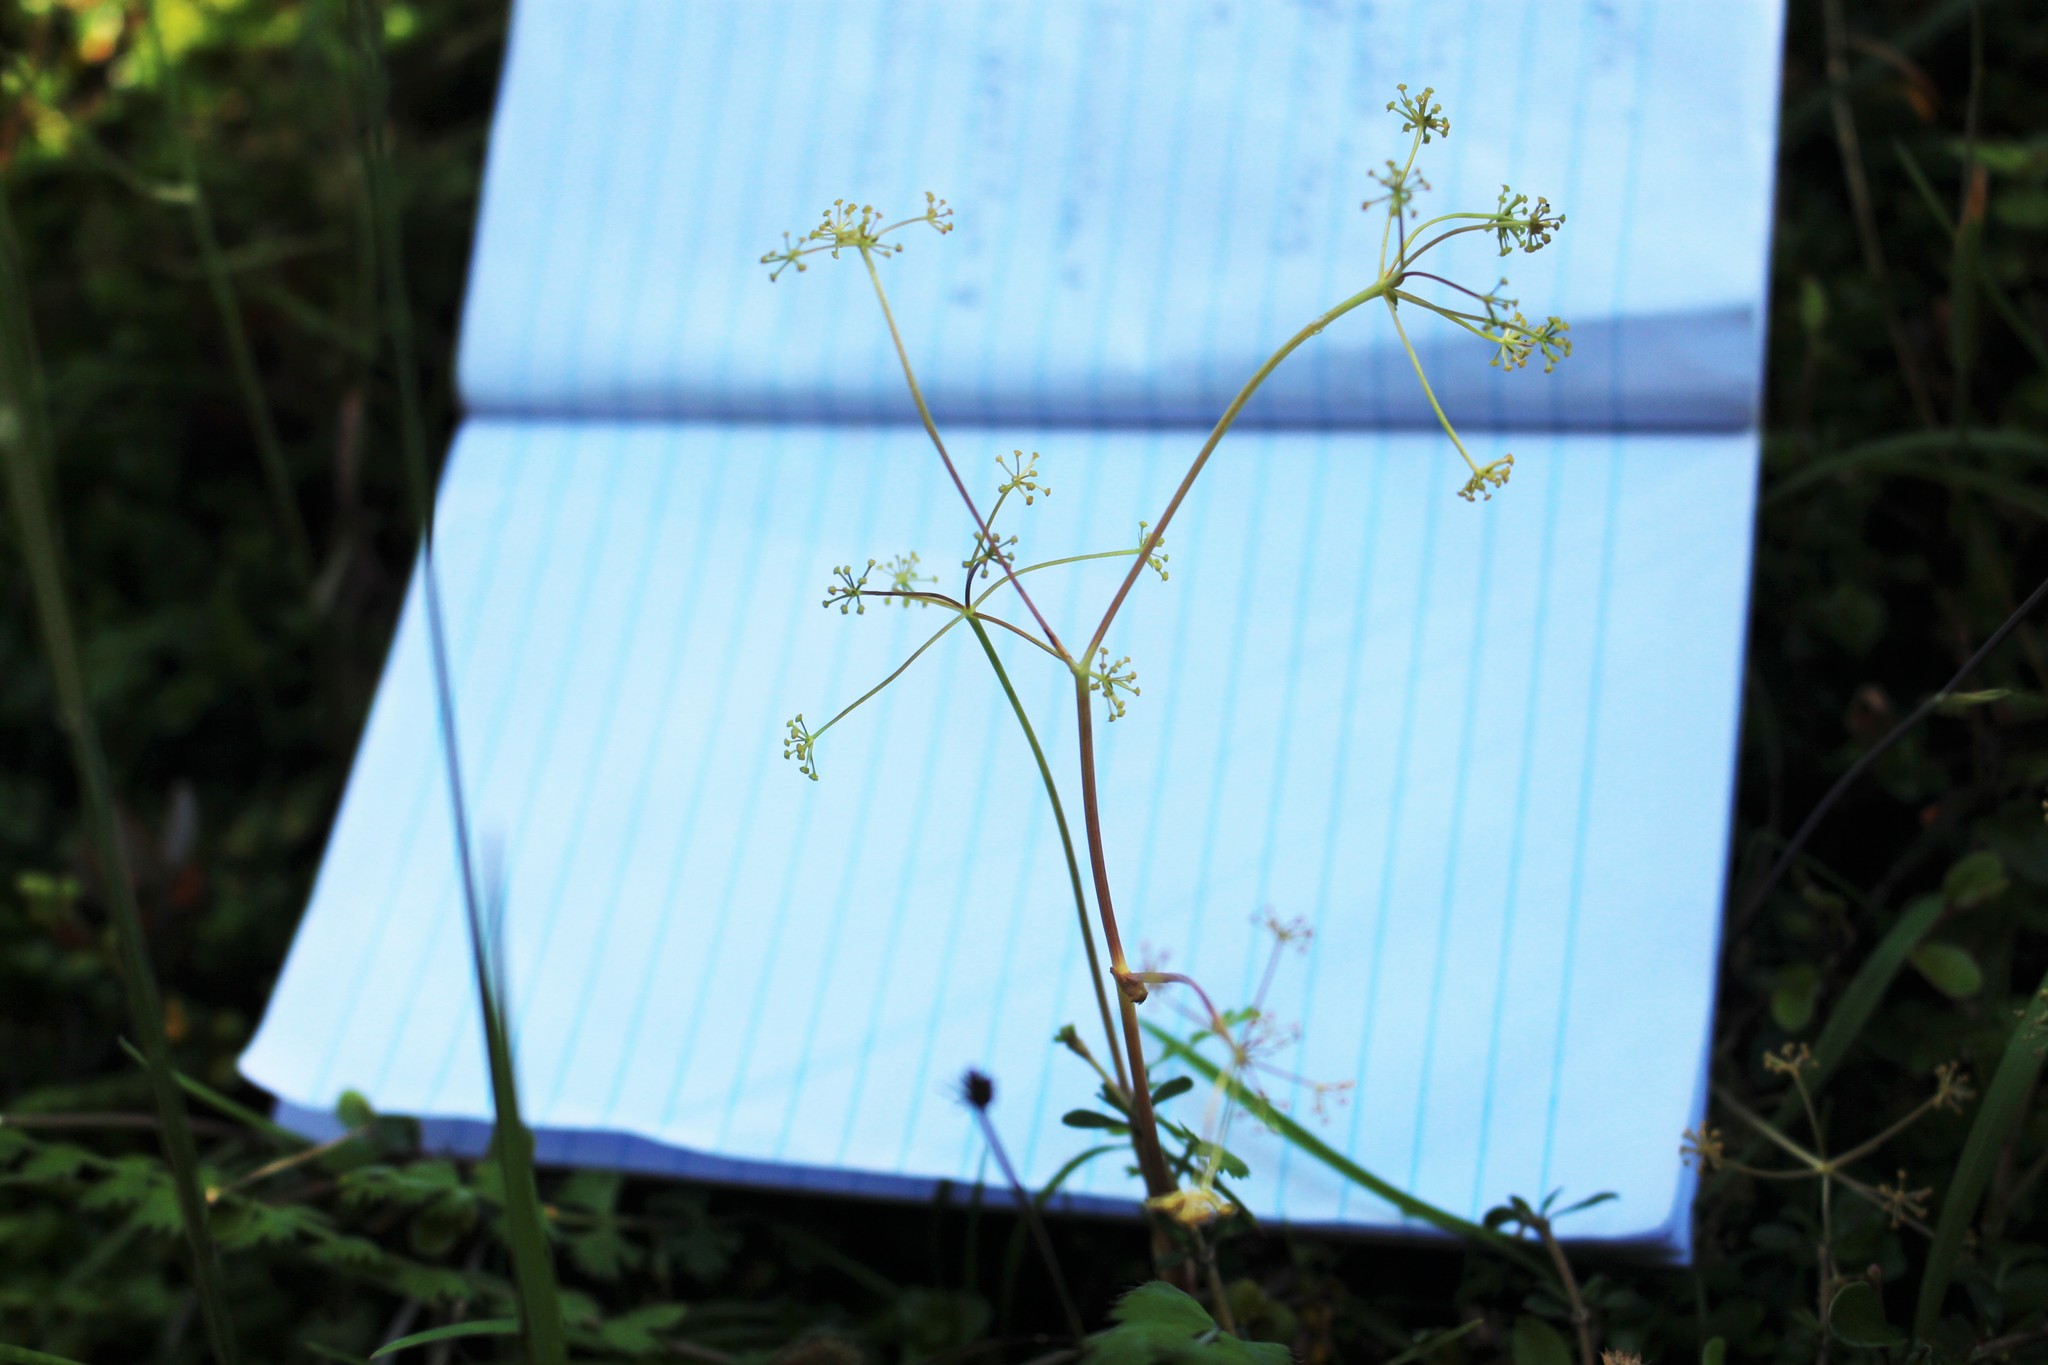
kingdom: Plantae
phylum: Tracheophyta
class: Magnoliopsida
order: Apiales
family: Apiaceae
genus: Anisotome
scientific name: Anisotome aromatica
